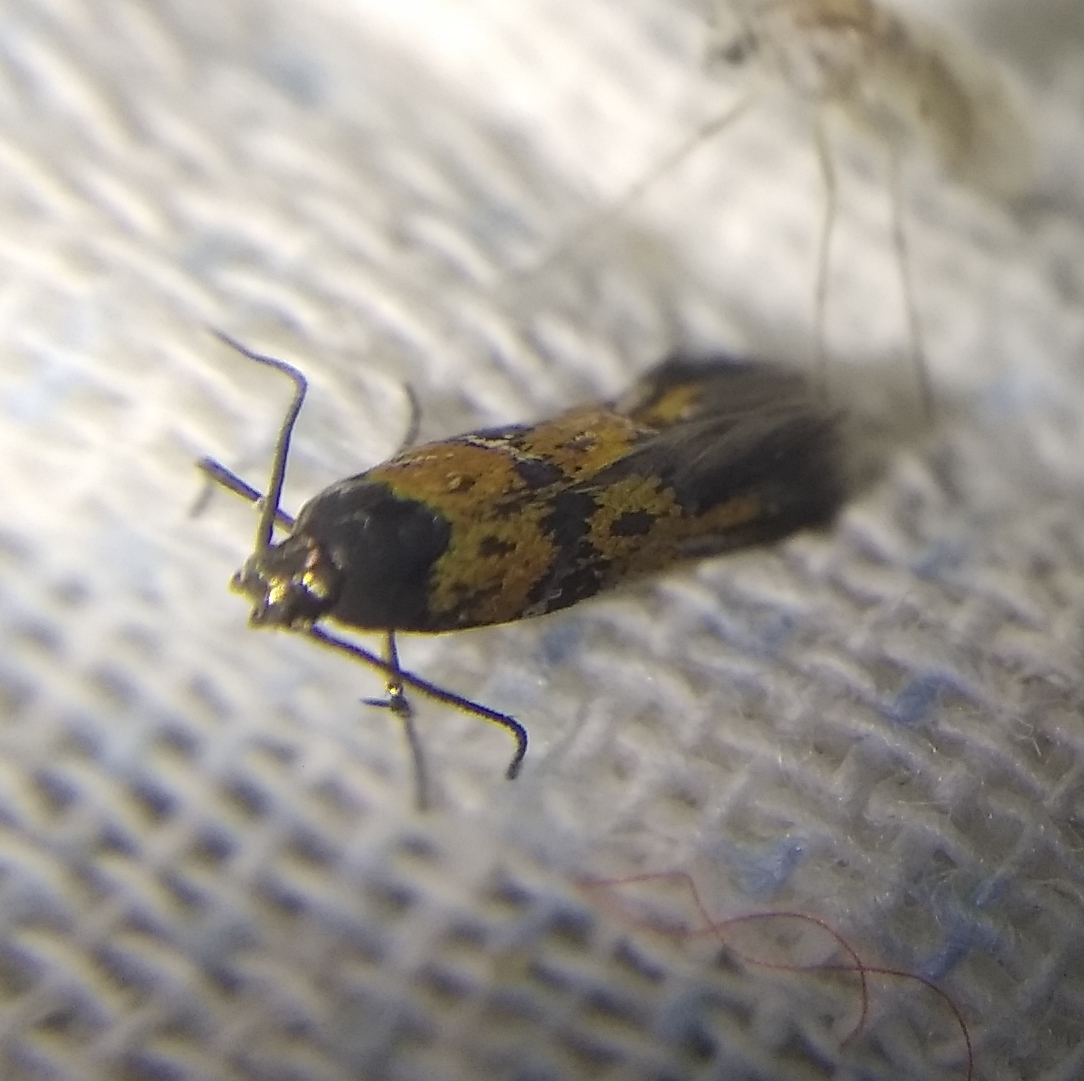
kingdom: Animalia
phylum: Arthropoda
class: Insecta
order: Lepidoptera
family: Gelechiidae
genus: Chrysoesthia
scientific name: Chrysoesthia drurella
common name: Flame neb
